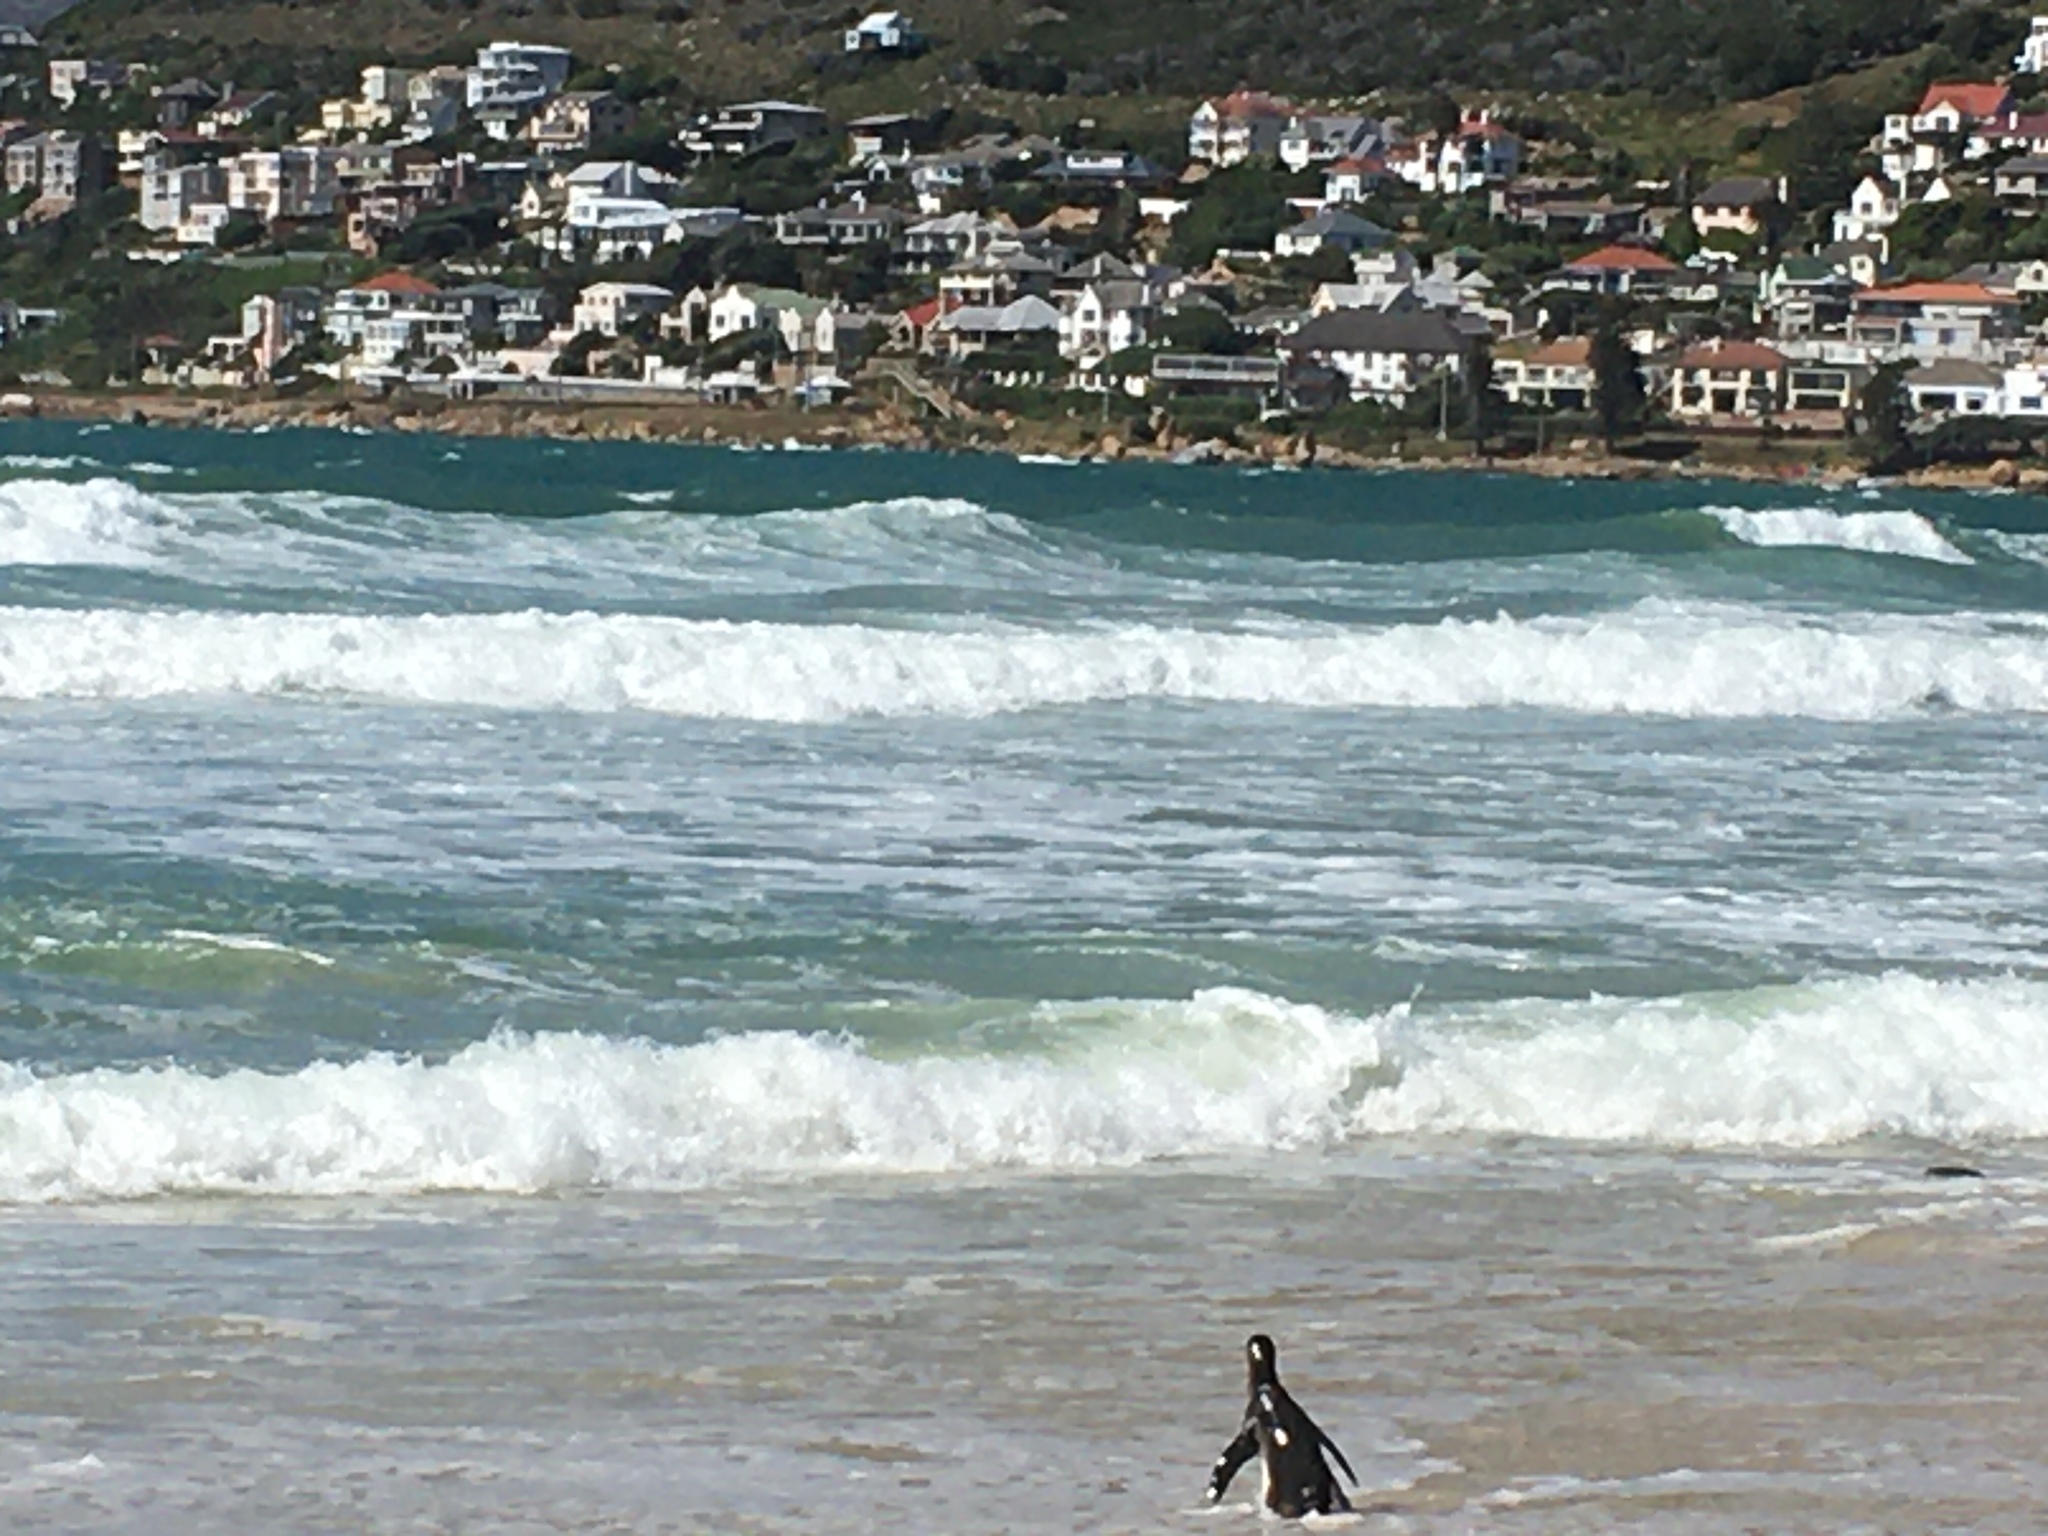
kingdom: Animalia
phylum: Chordata
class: Aves
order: Sphenisciformes
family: Spheniscidae
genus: Spheniscus
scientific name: Spheniscus demersus
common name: African penguin
